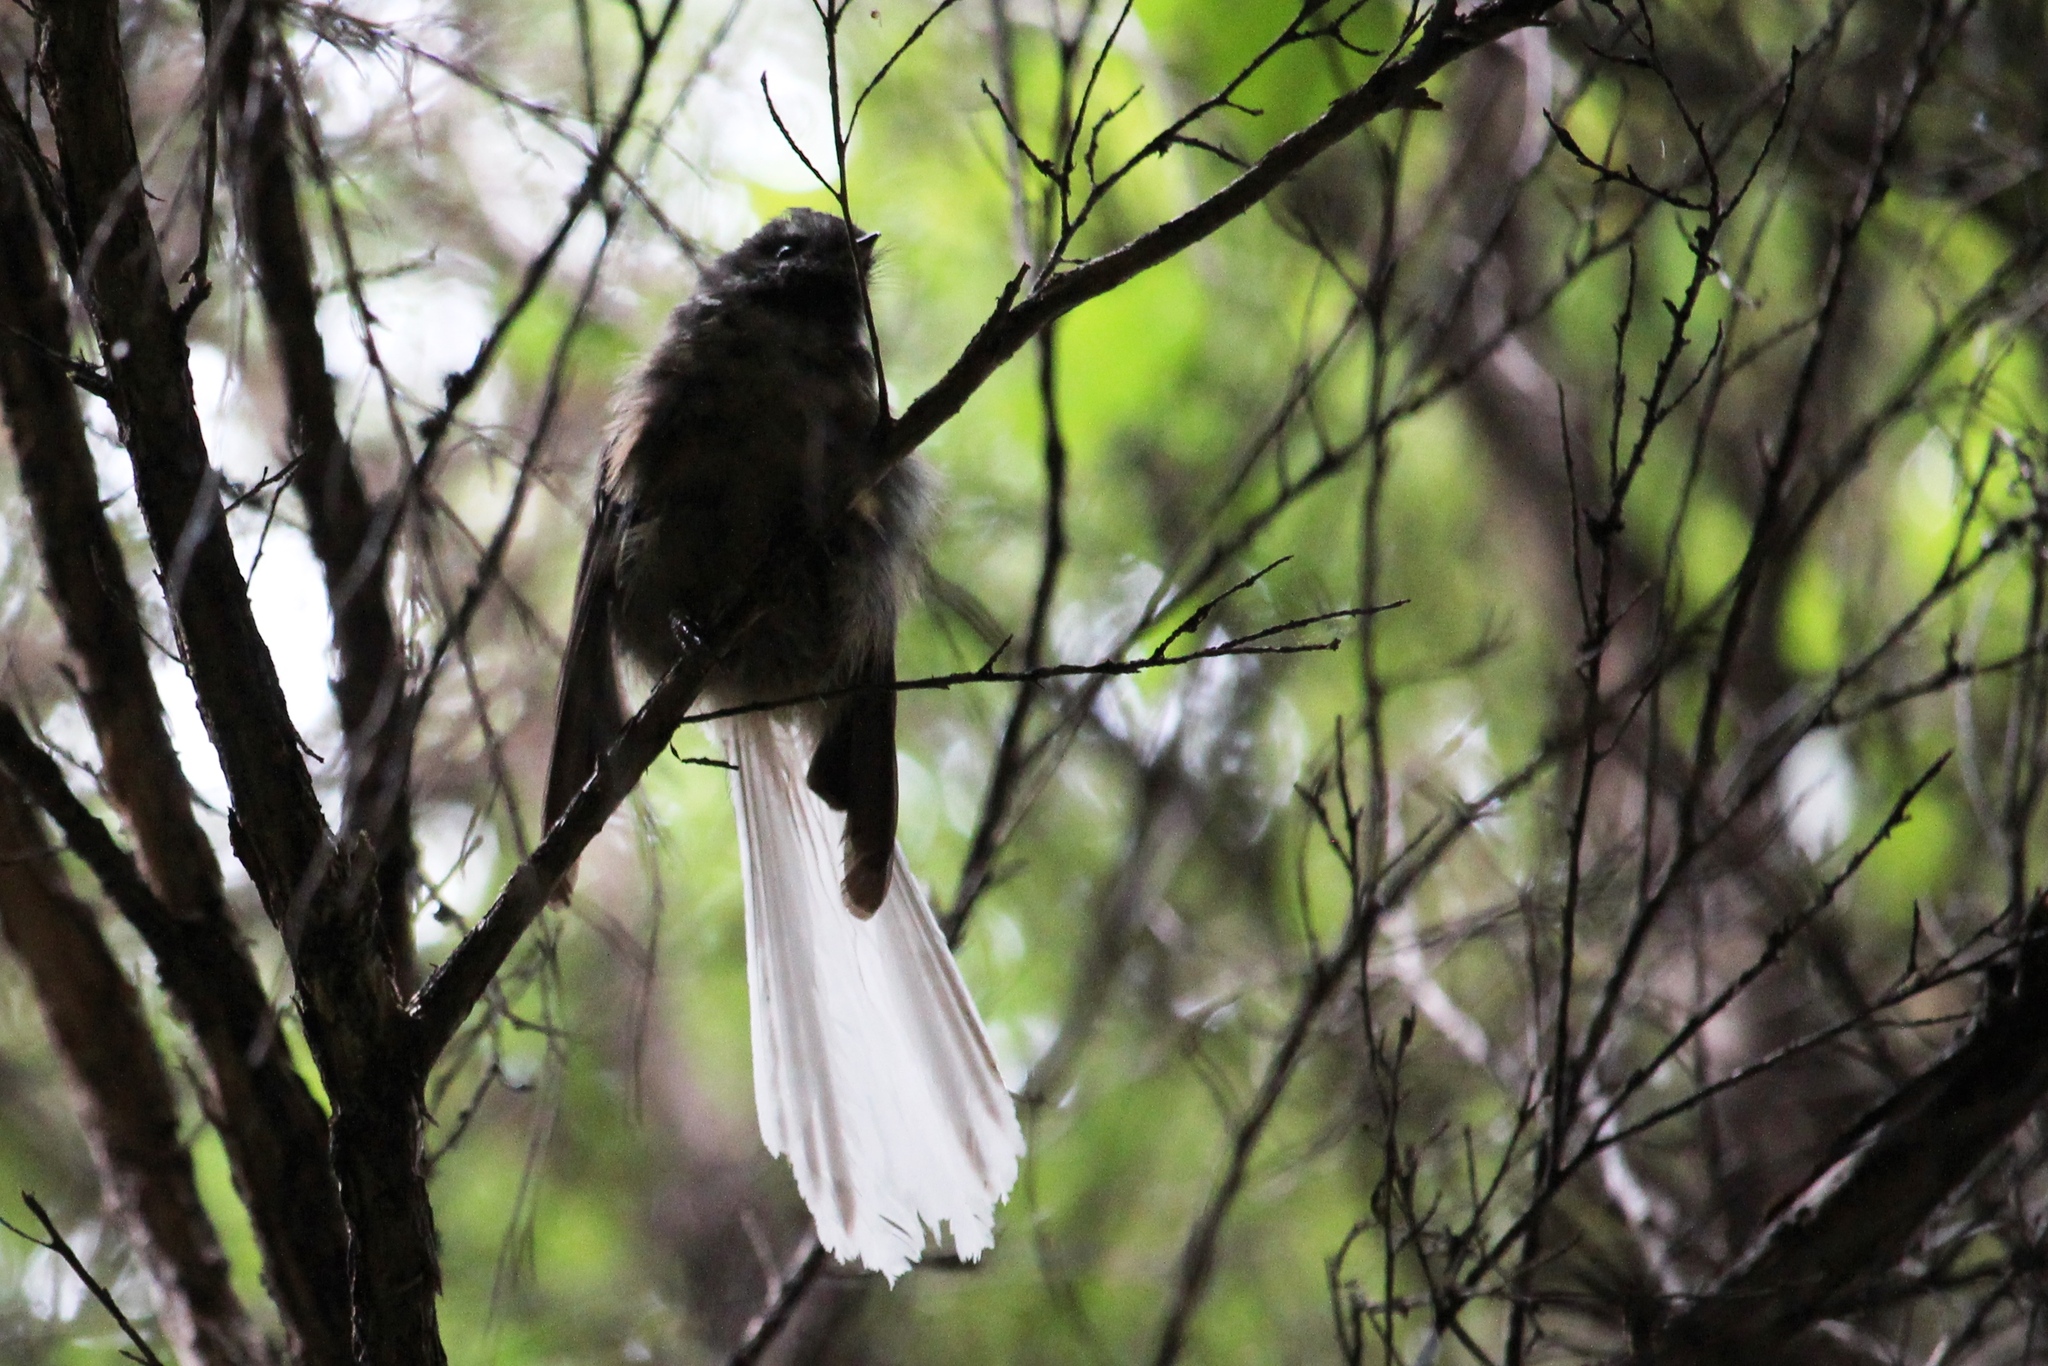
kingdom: Animalia
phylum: Chordata
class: Aves
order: Passeriformes
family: Rhipiduridae
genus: Rhipidura
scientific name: Rhipidura fuliginosa
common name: New zealand fantail
